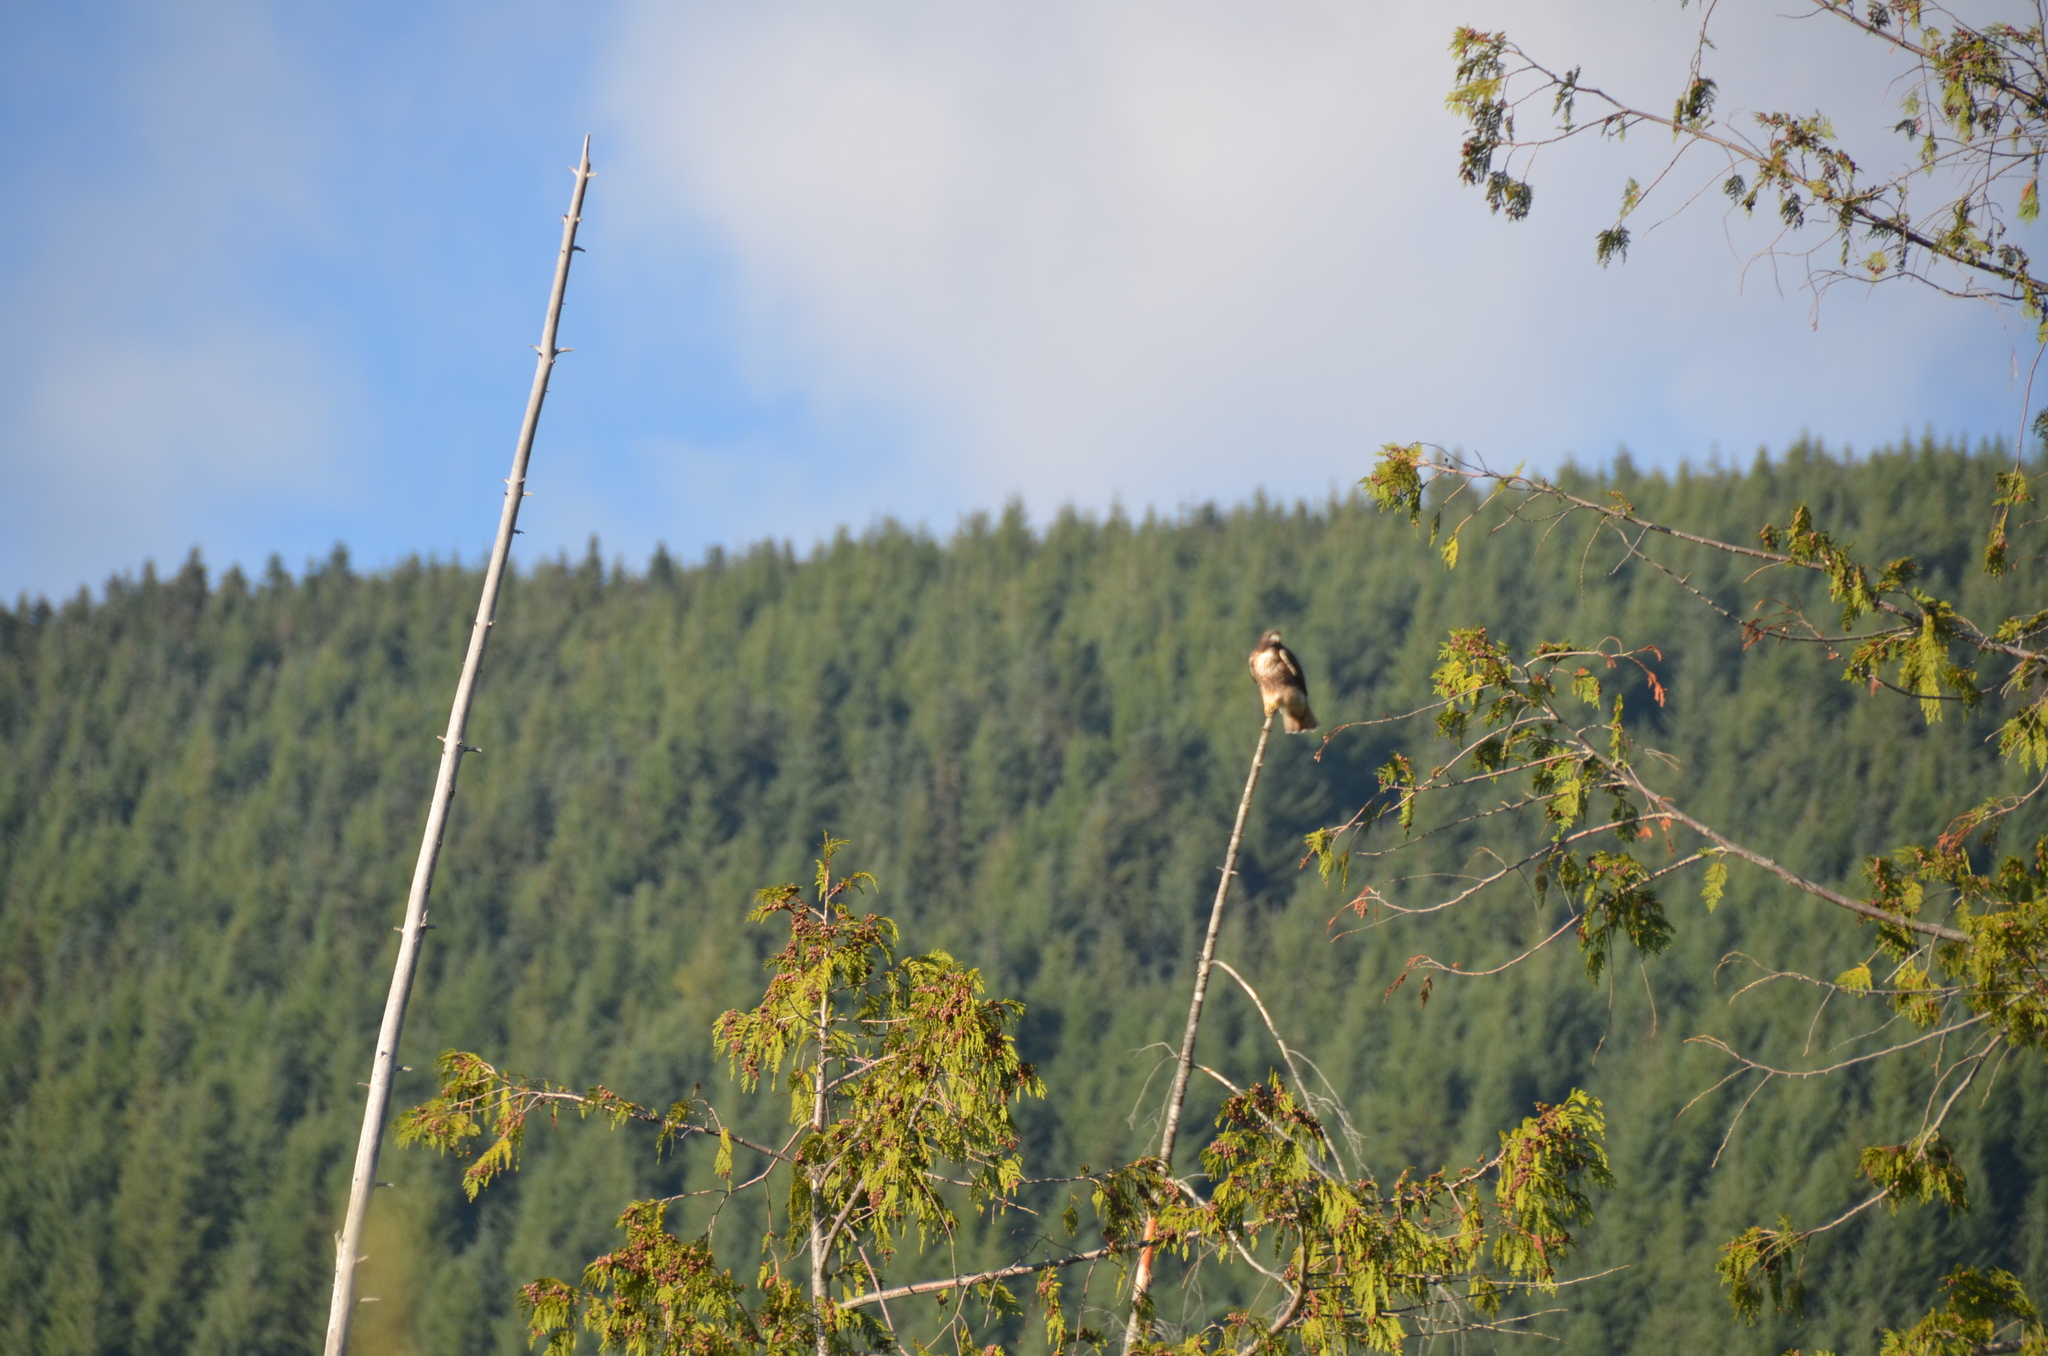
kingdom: Animalia
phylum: Chordata
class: Aves
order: Accipitriformes
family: Accipitridae
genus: Buteo
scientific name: Buteo jamaicensis
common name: Red-tailed hawk
